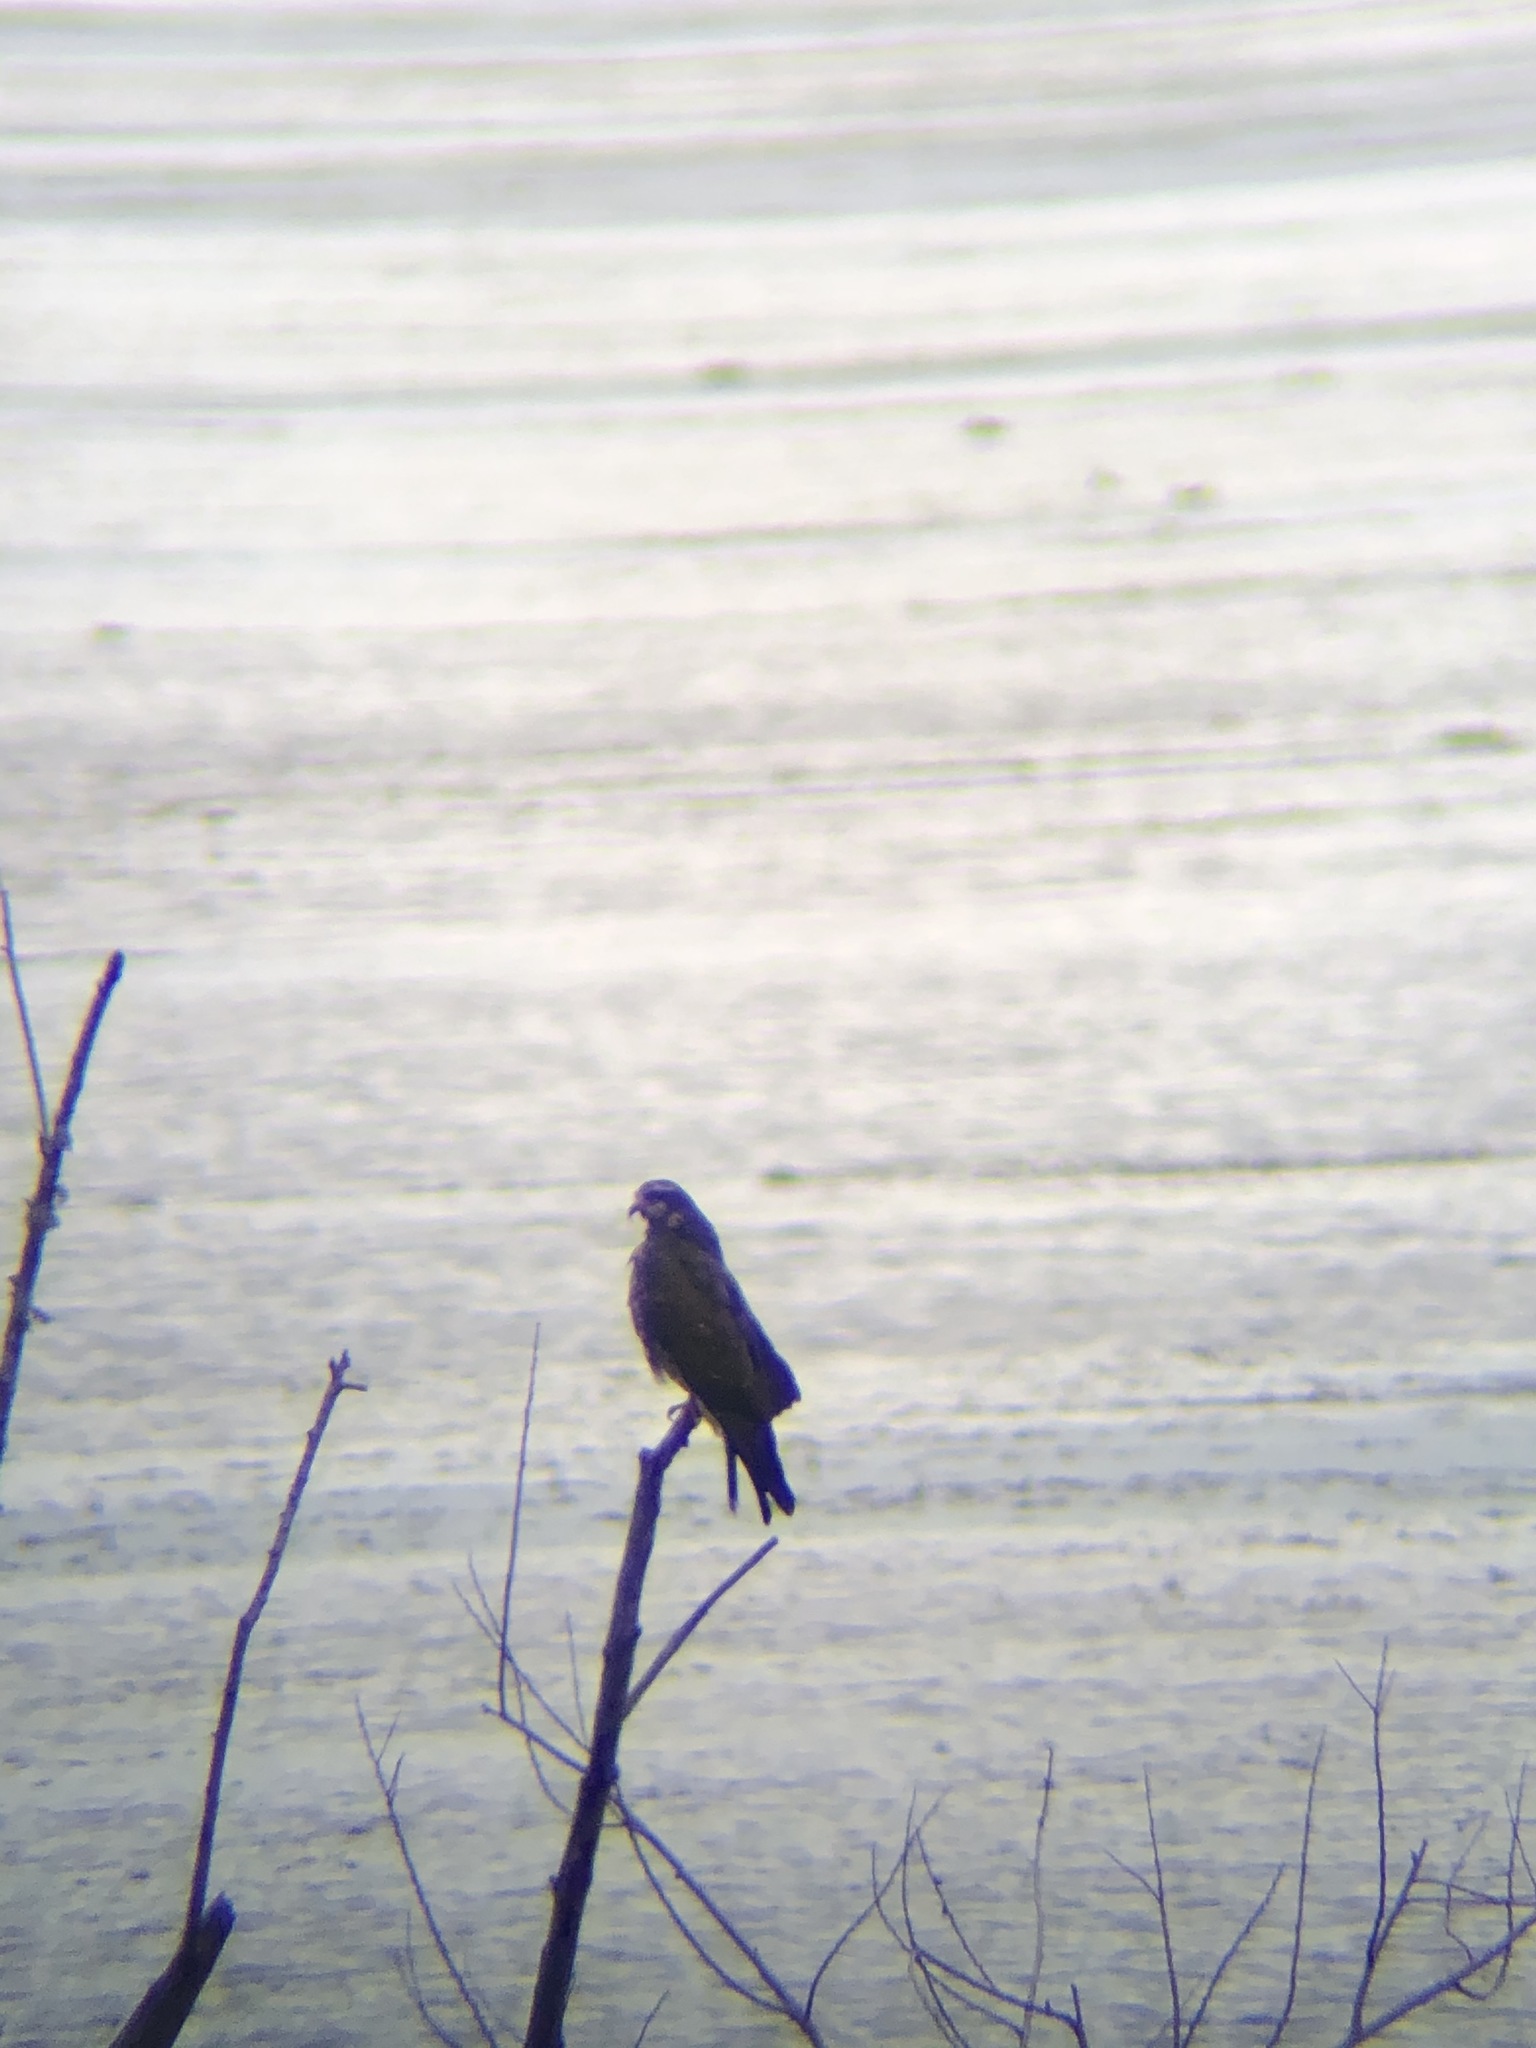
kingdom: Animalia
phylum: Chordata
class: Aves
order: Accipitriformes
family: Accipitridae
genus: Rostrhamus
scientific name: Rostrhamus sociabilis
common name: Snail kite
